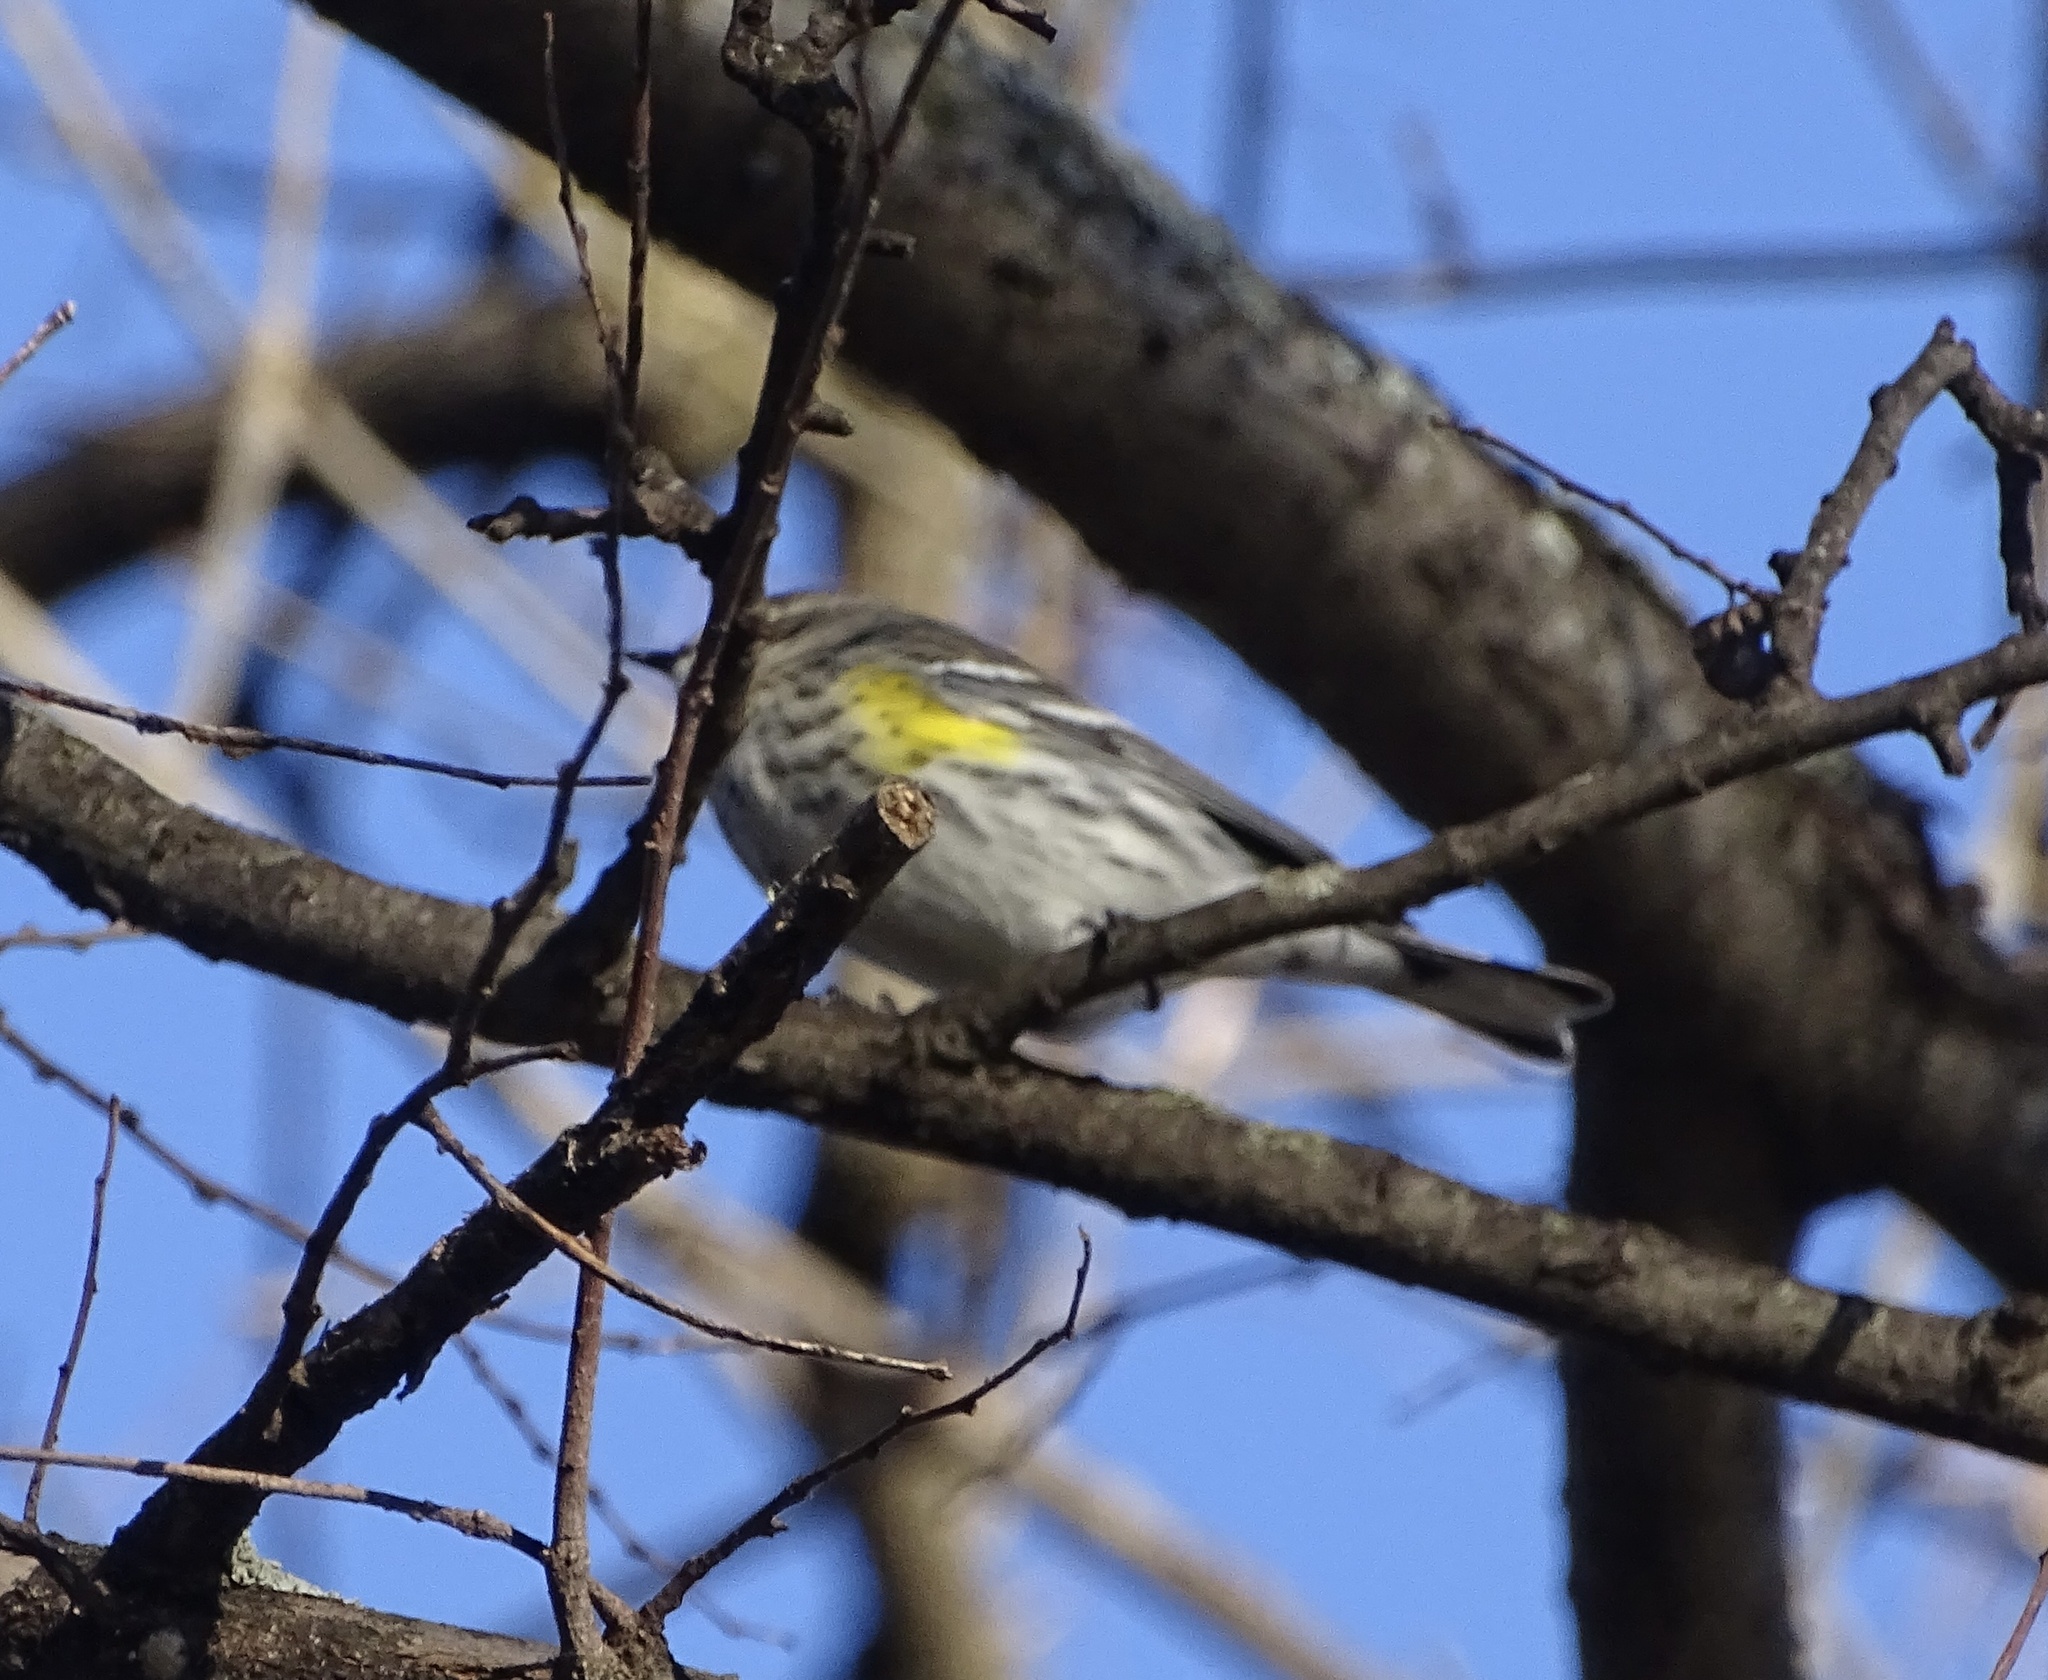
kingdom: Animalia
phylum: Chordata
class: Aves
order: Passeriformes
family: Parulidae
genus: Setophaga
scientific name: Setophaga coronata
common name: Myrtle warbler
